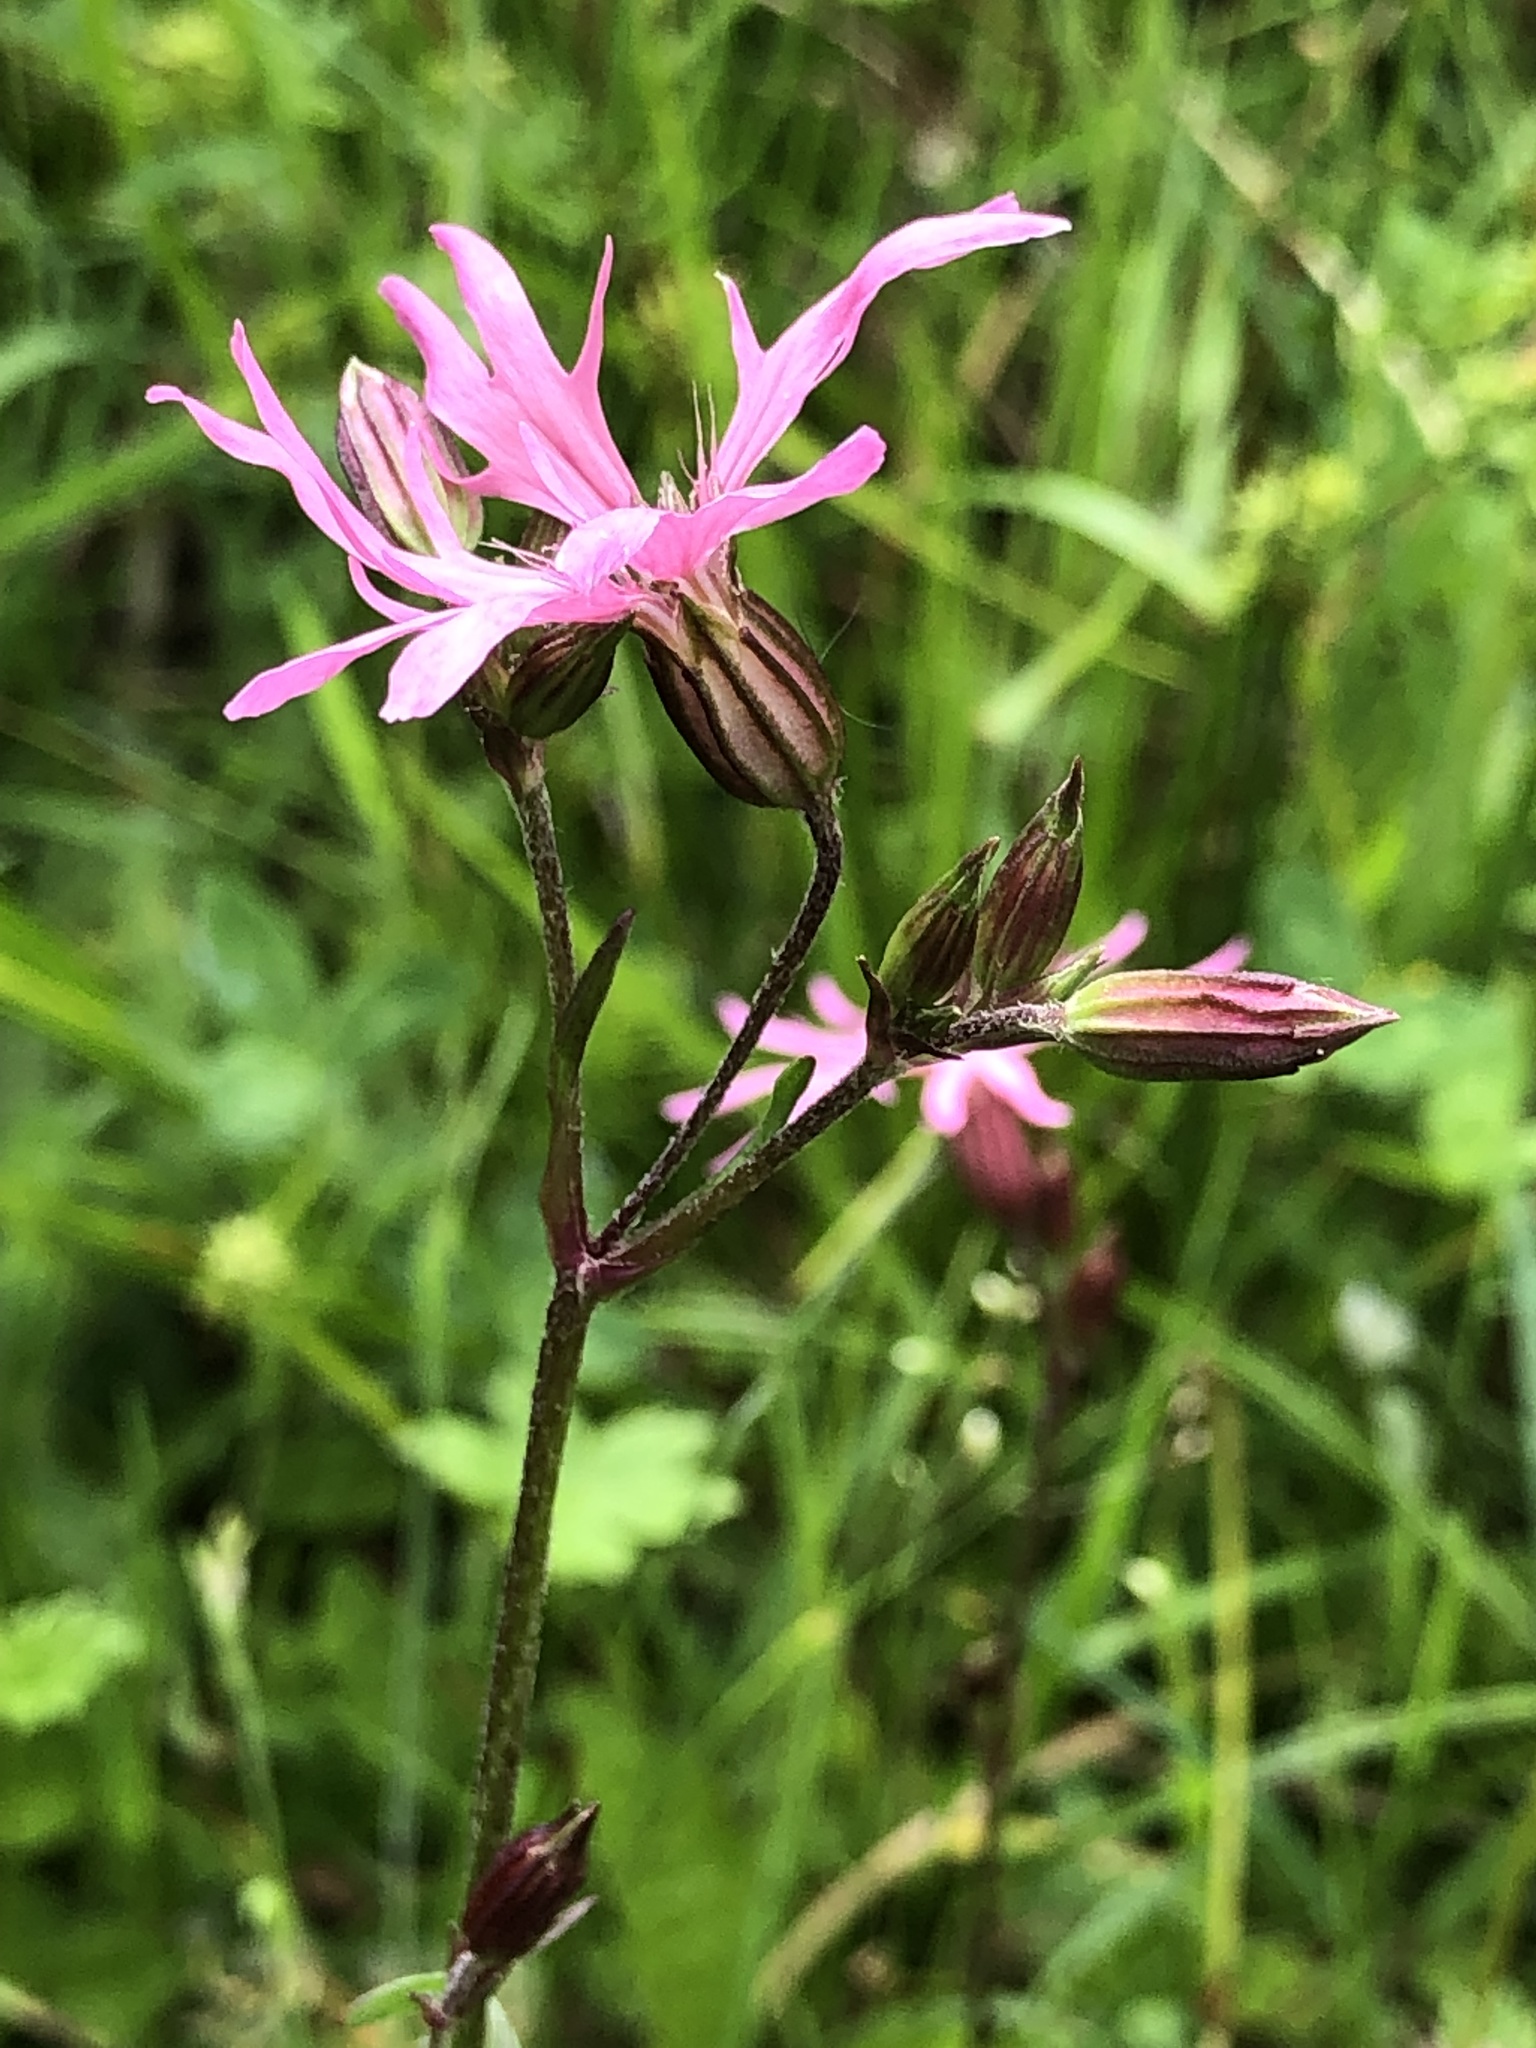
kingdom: Plantae
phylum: Tracheophyta
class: Magnoliopsida
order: Caryophyllales
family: Caryophyllaceae
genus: Silene
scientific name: Silene flos-cuculi
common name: Ragged-robin
